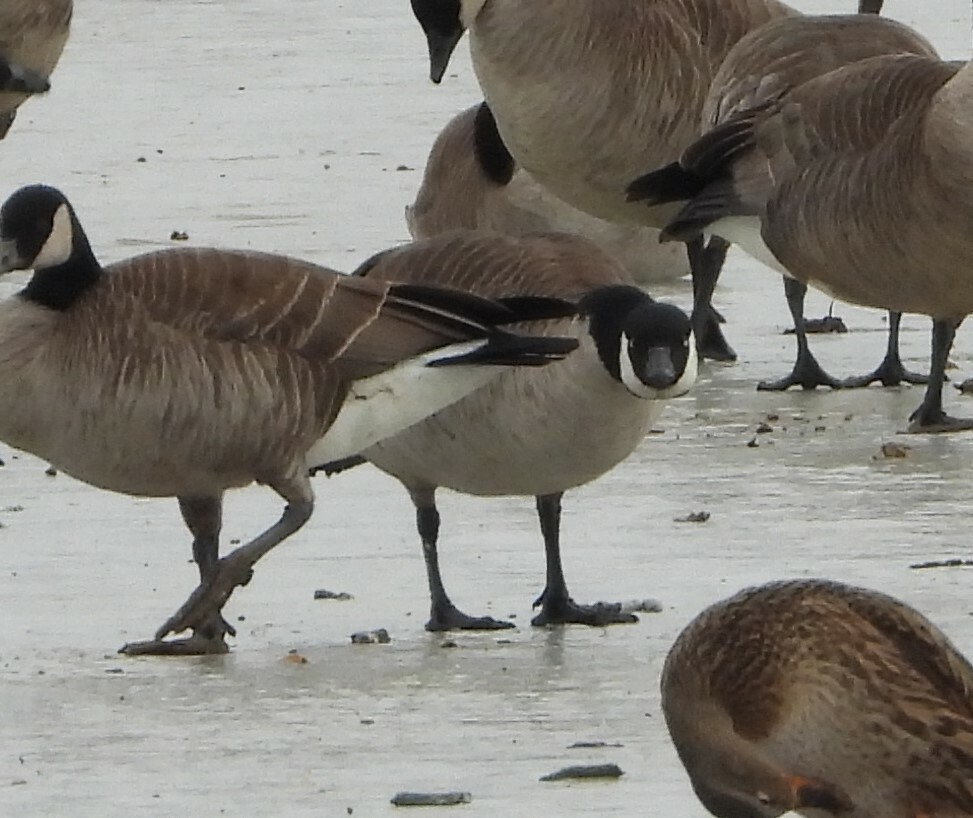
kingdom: Animalia
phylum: Chordata
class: Aves
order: Anseriformes
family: Anatidae
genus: Branta
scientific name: Branta hutchinsii
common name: Cackling goose
